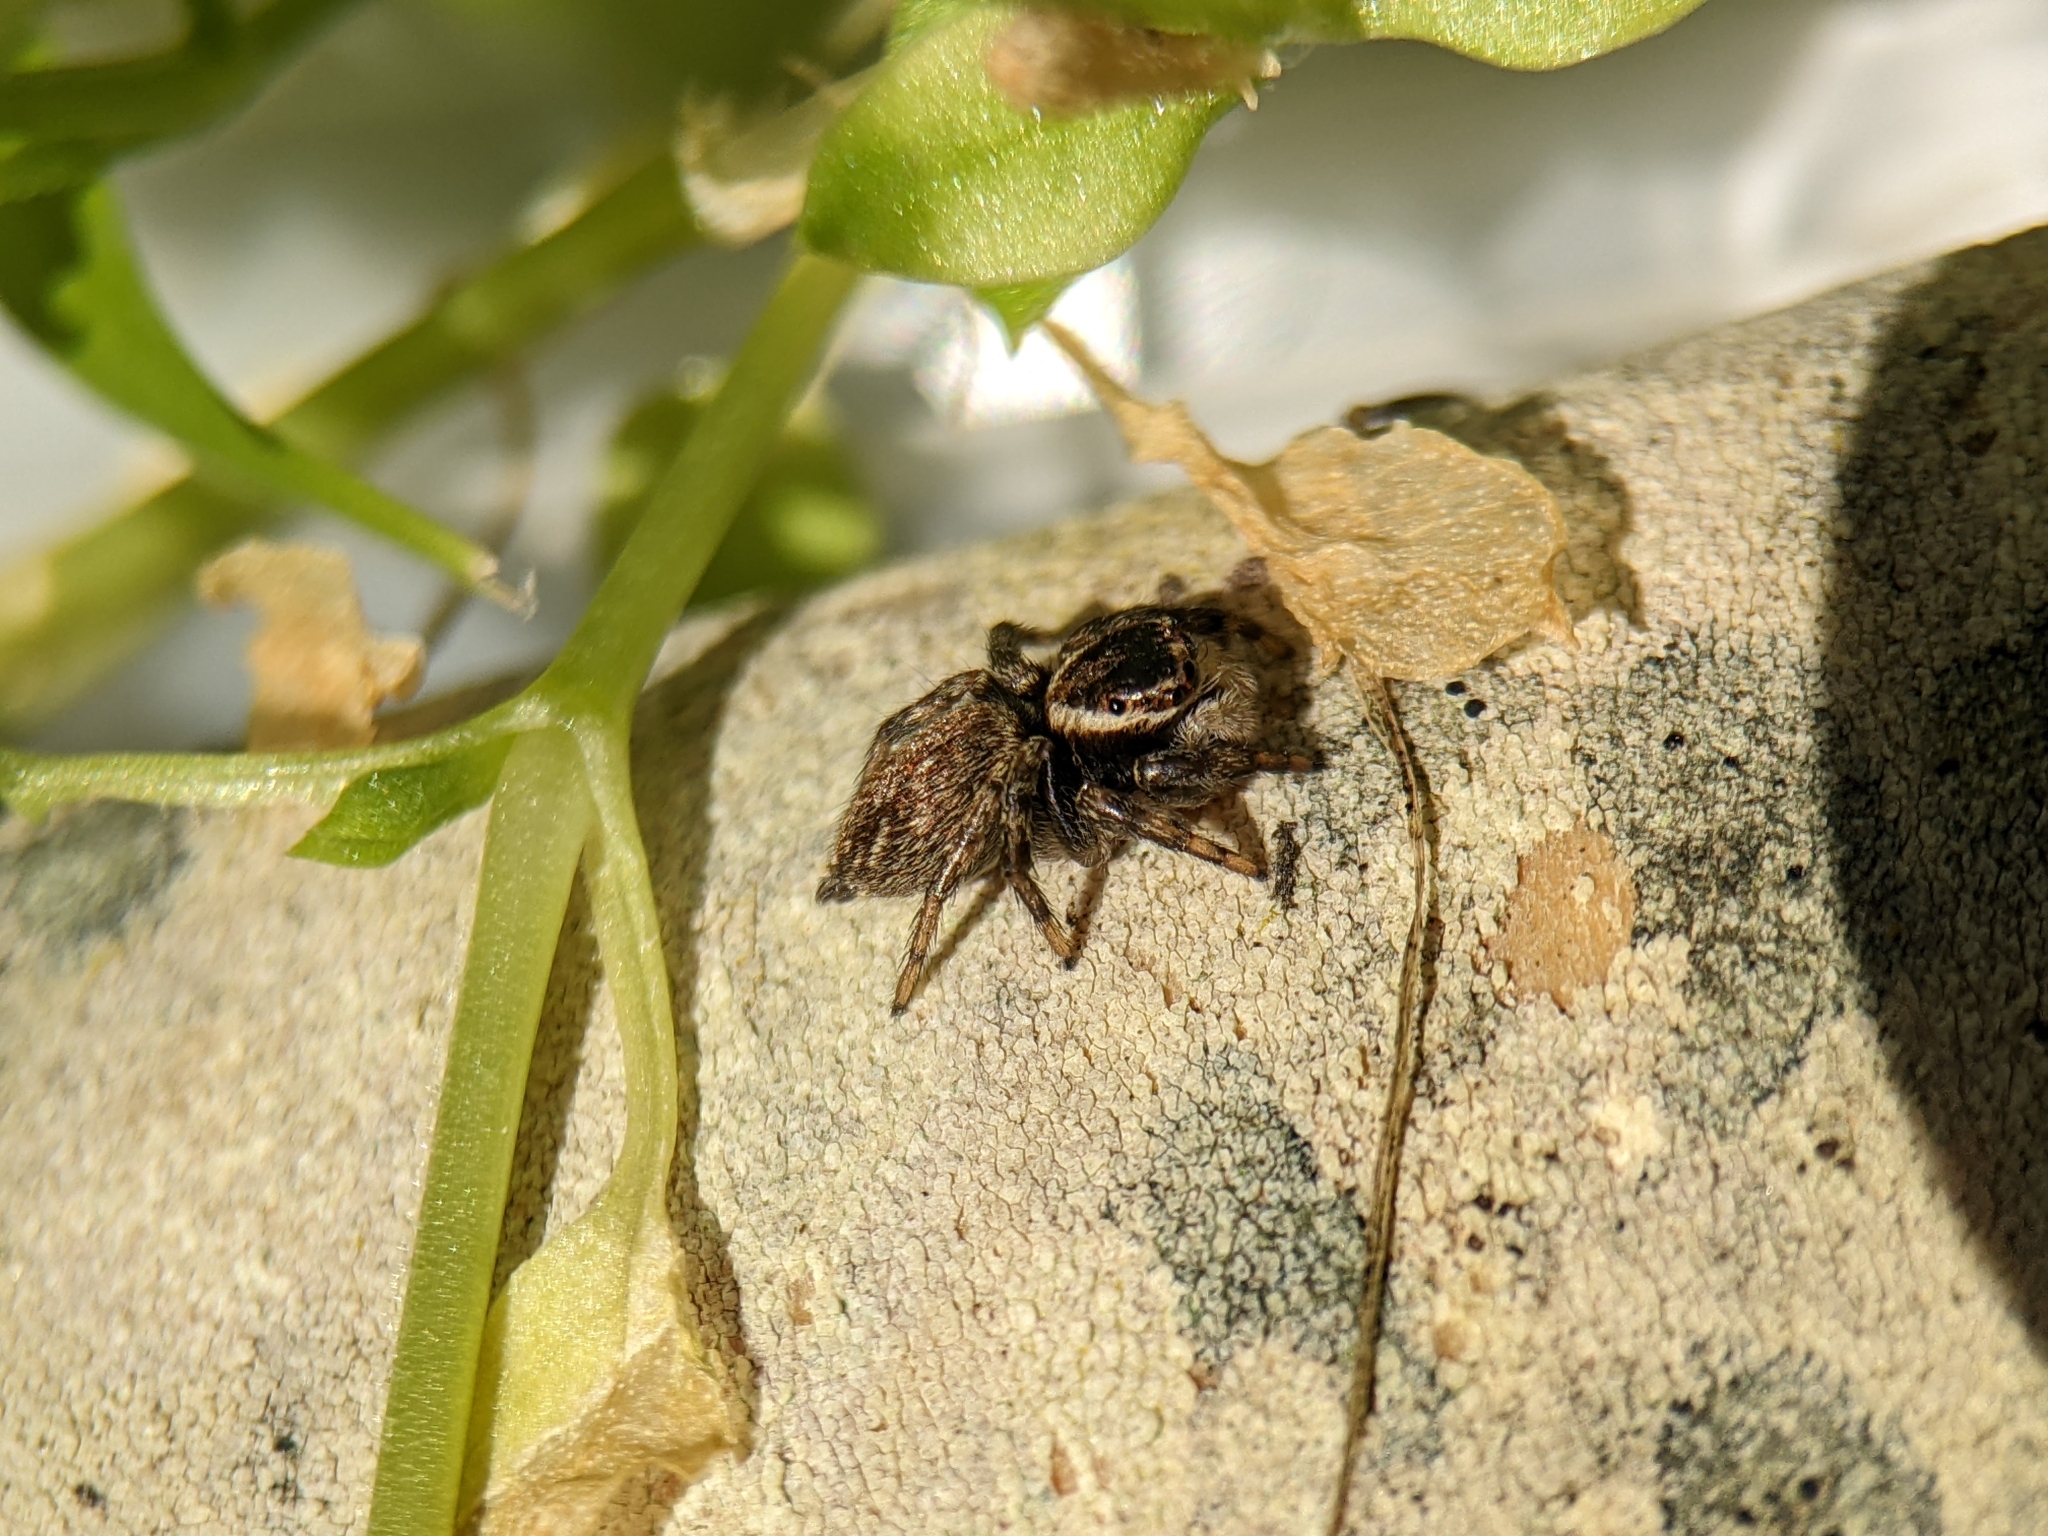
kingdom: Animalia
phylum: Arthropoda
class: Arachnida
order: Araneae
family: Salticidae
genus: Maratus
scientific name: Maratus griseus
